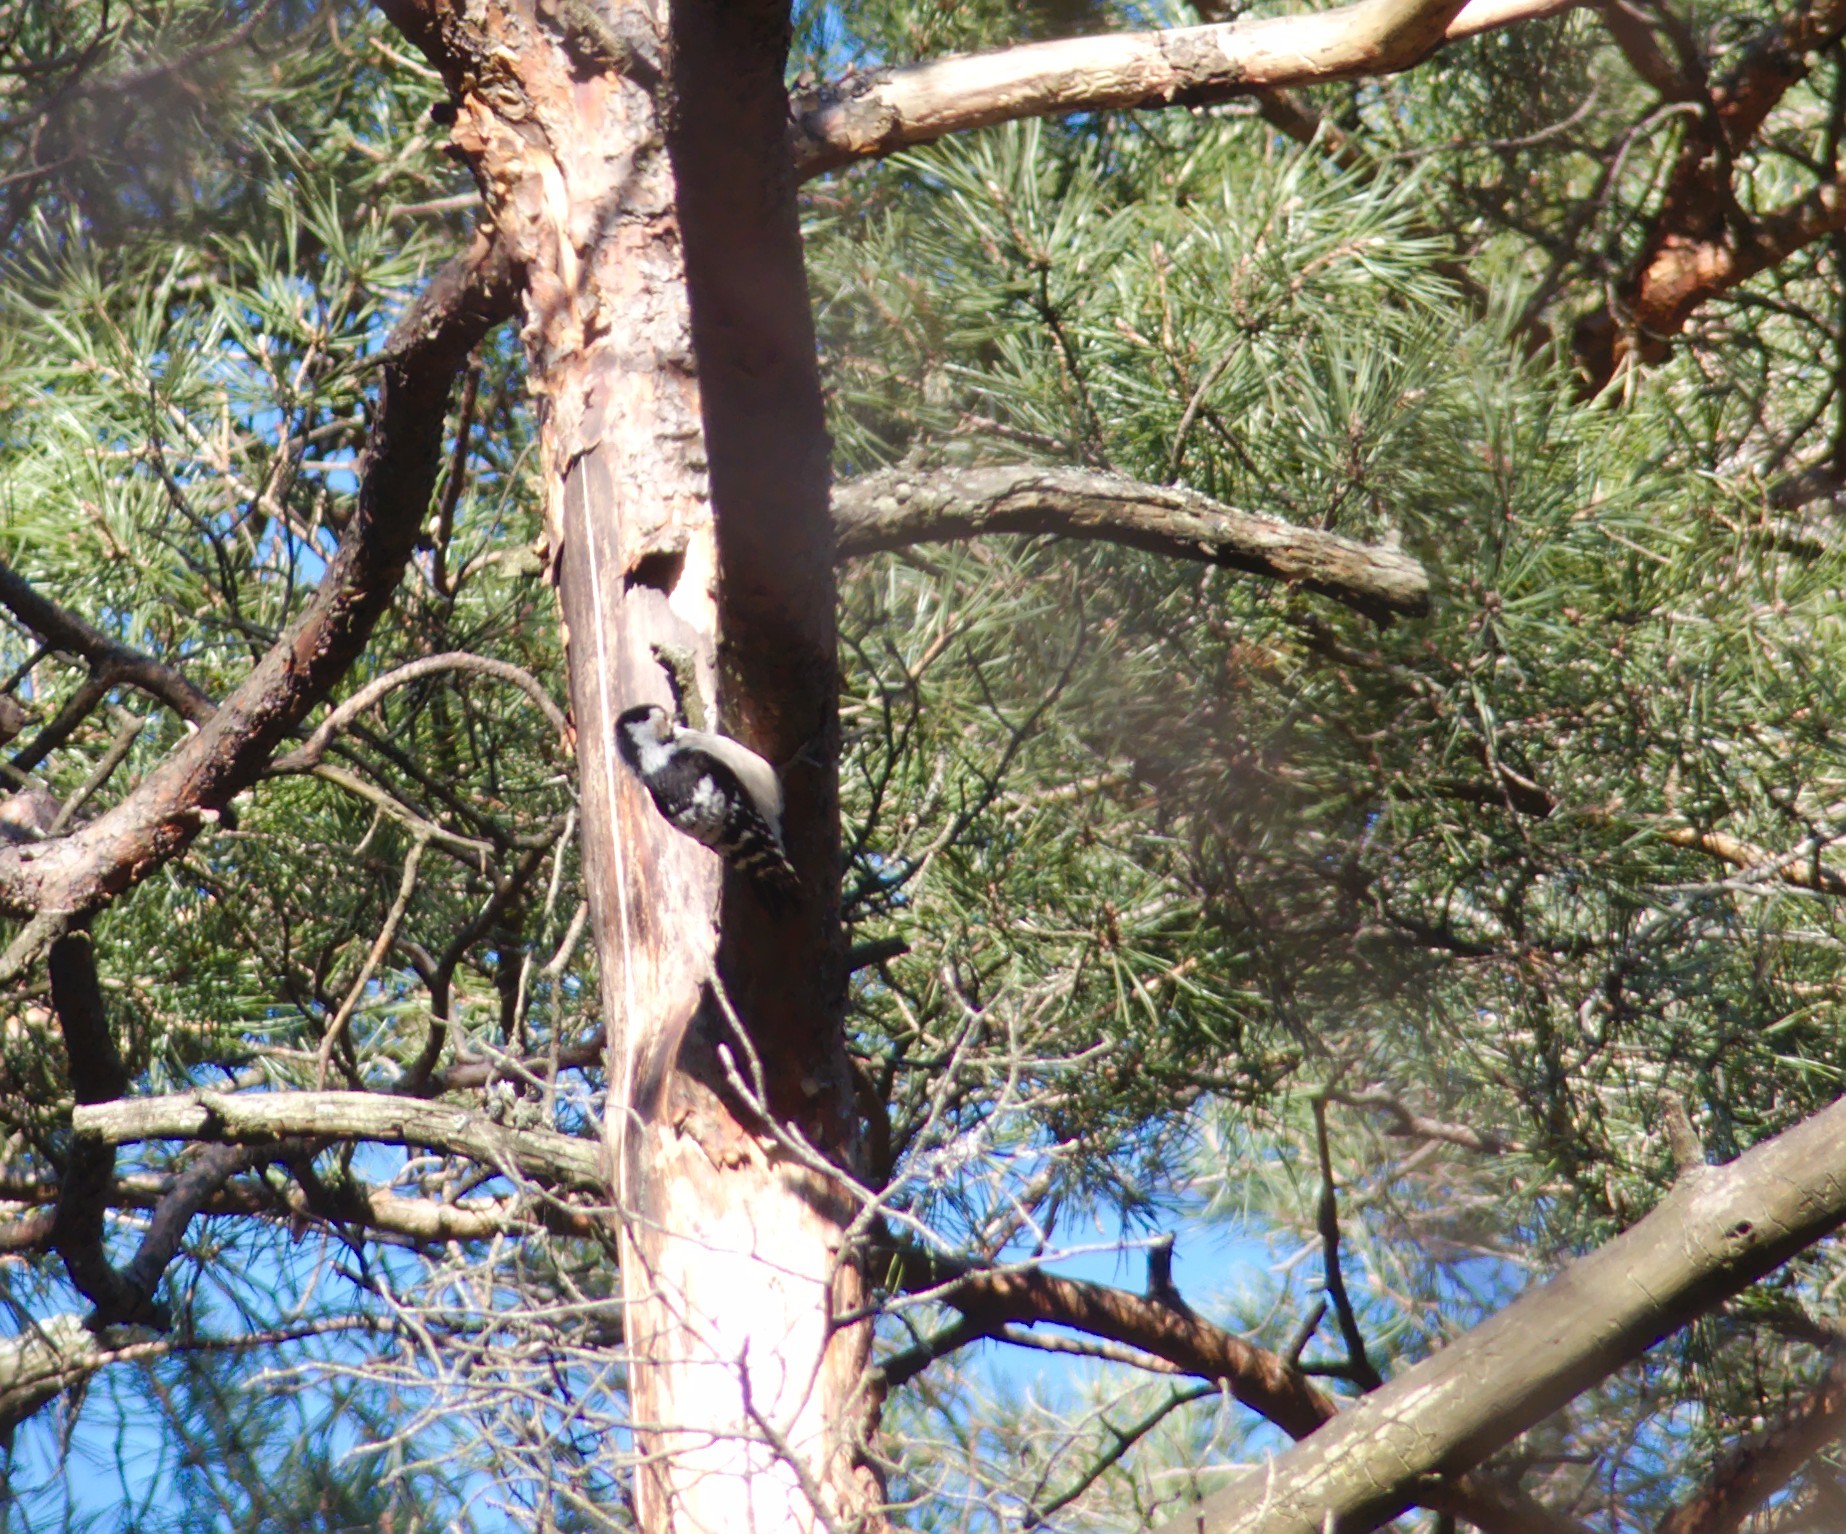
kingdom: Animalia
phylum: Chordata
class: Aves
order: Piciformes
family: Picidae
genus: Dendrocopos
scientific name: Dendrocopos leucotos
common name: White-backed woodpecker
